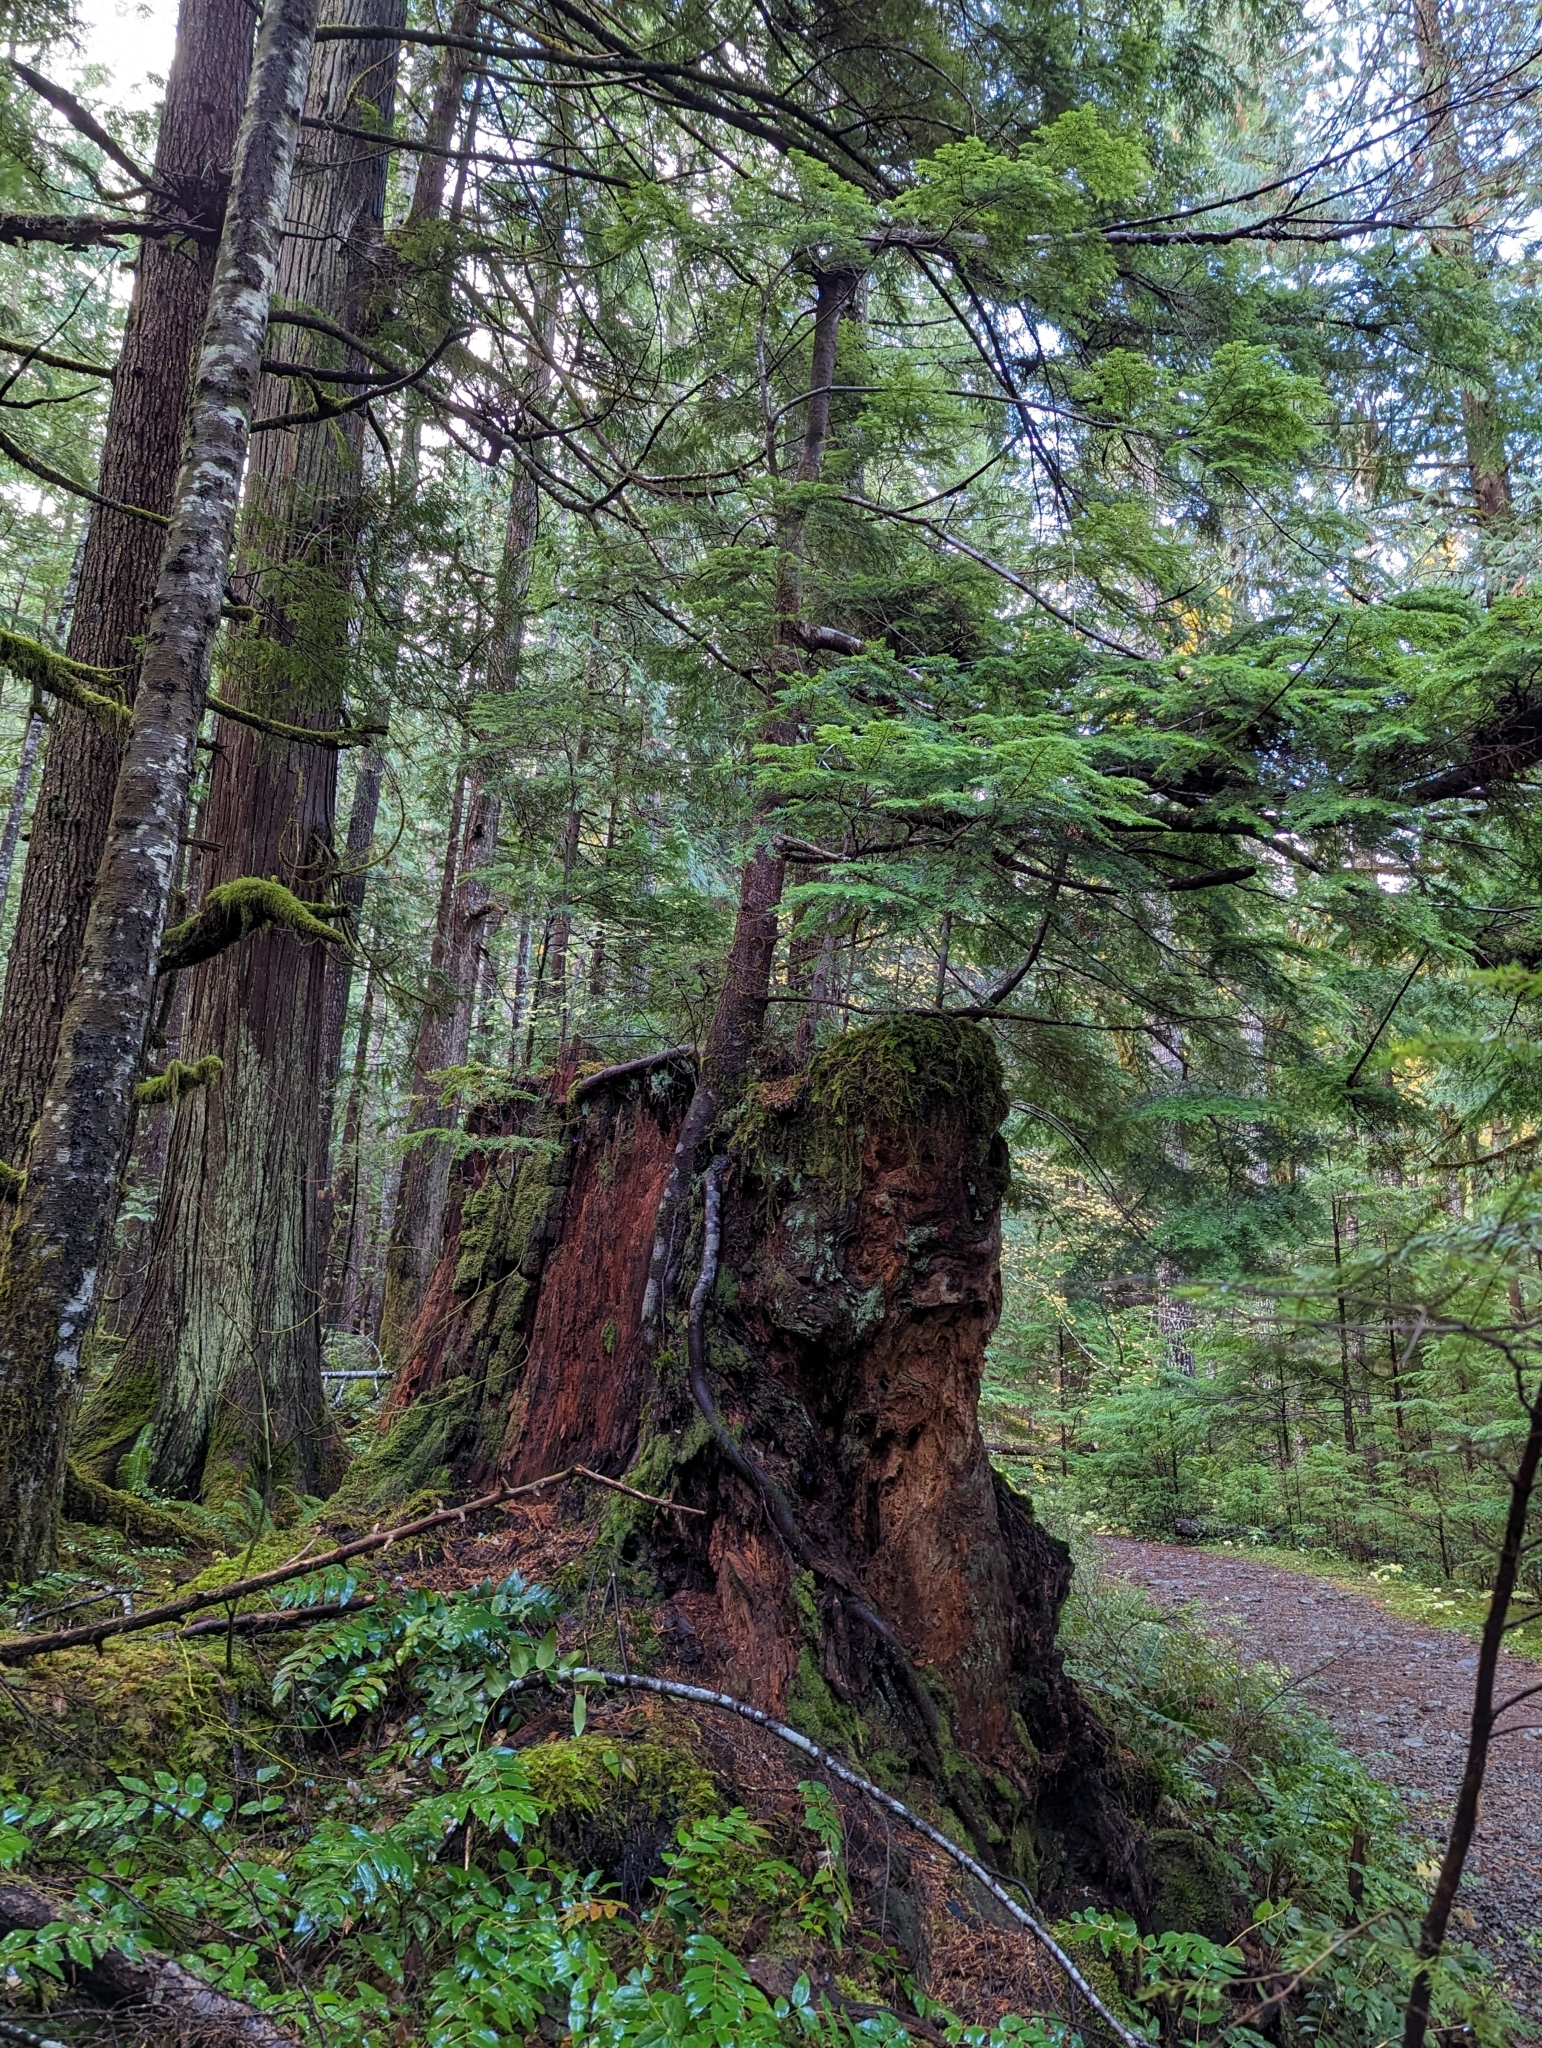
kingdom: Plantae
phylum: Tracheophyta
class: Pinopsida
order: Pinales
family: Pinaceae
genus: Tsuga
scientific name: Tsuga heterophylla
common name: Western hemlock
